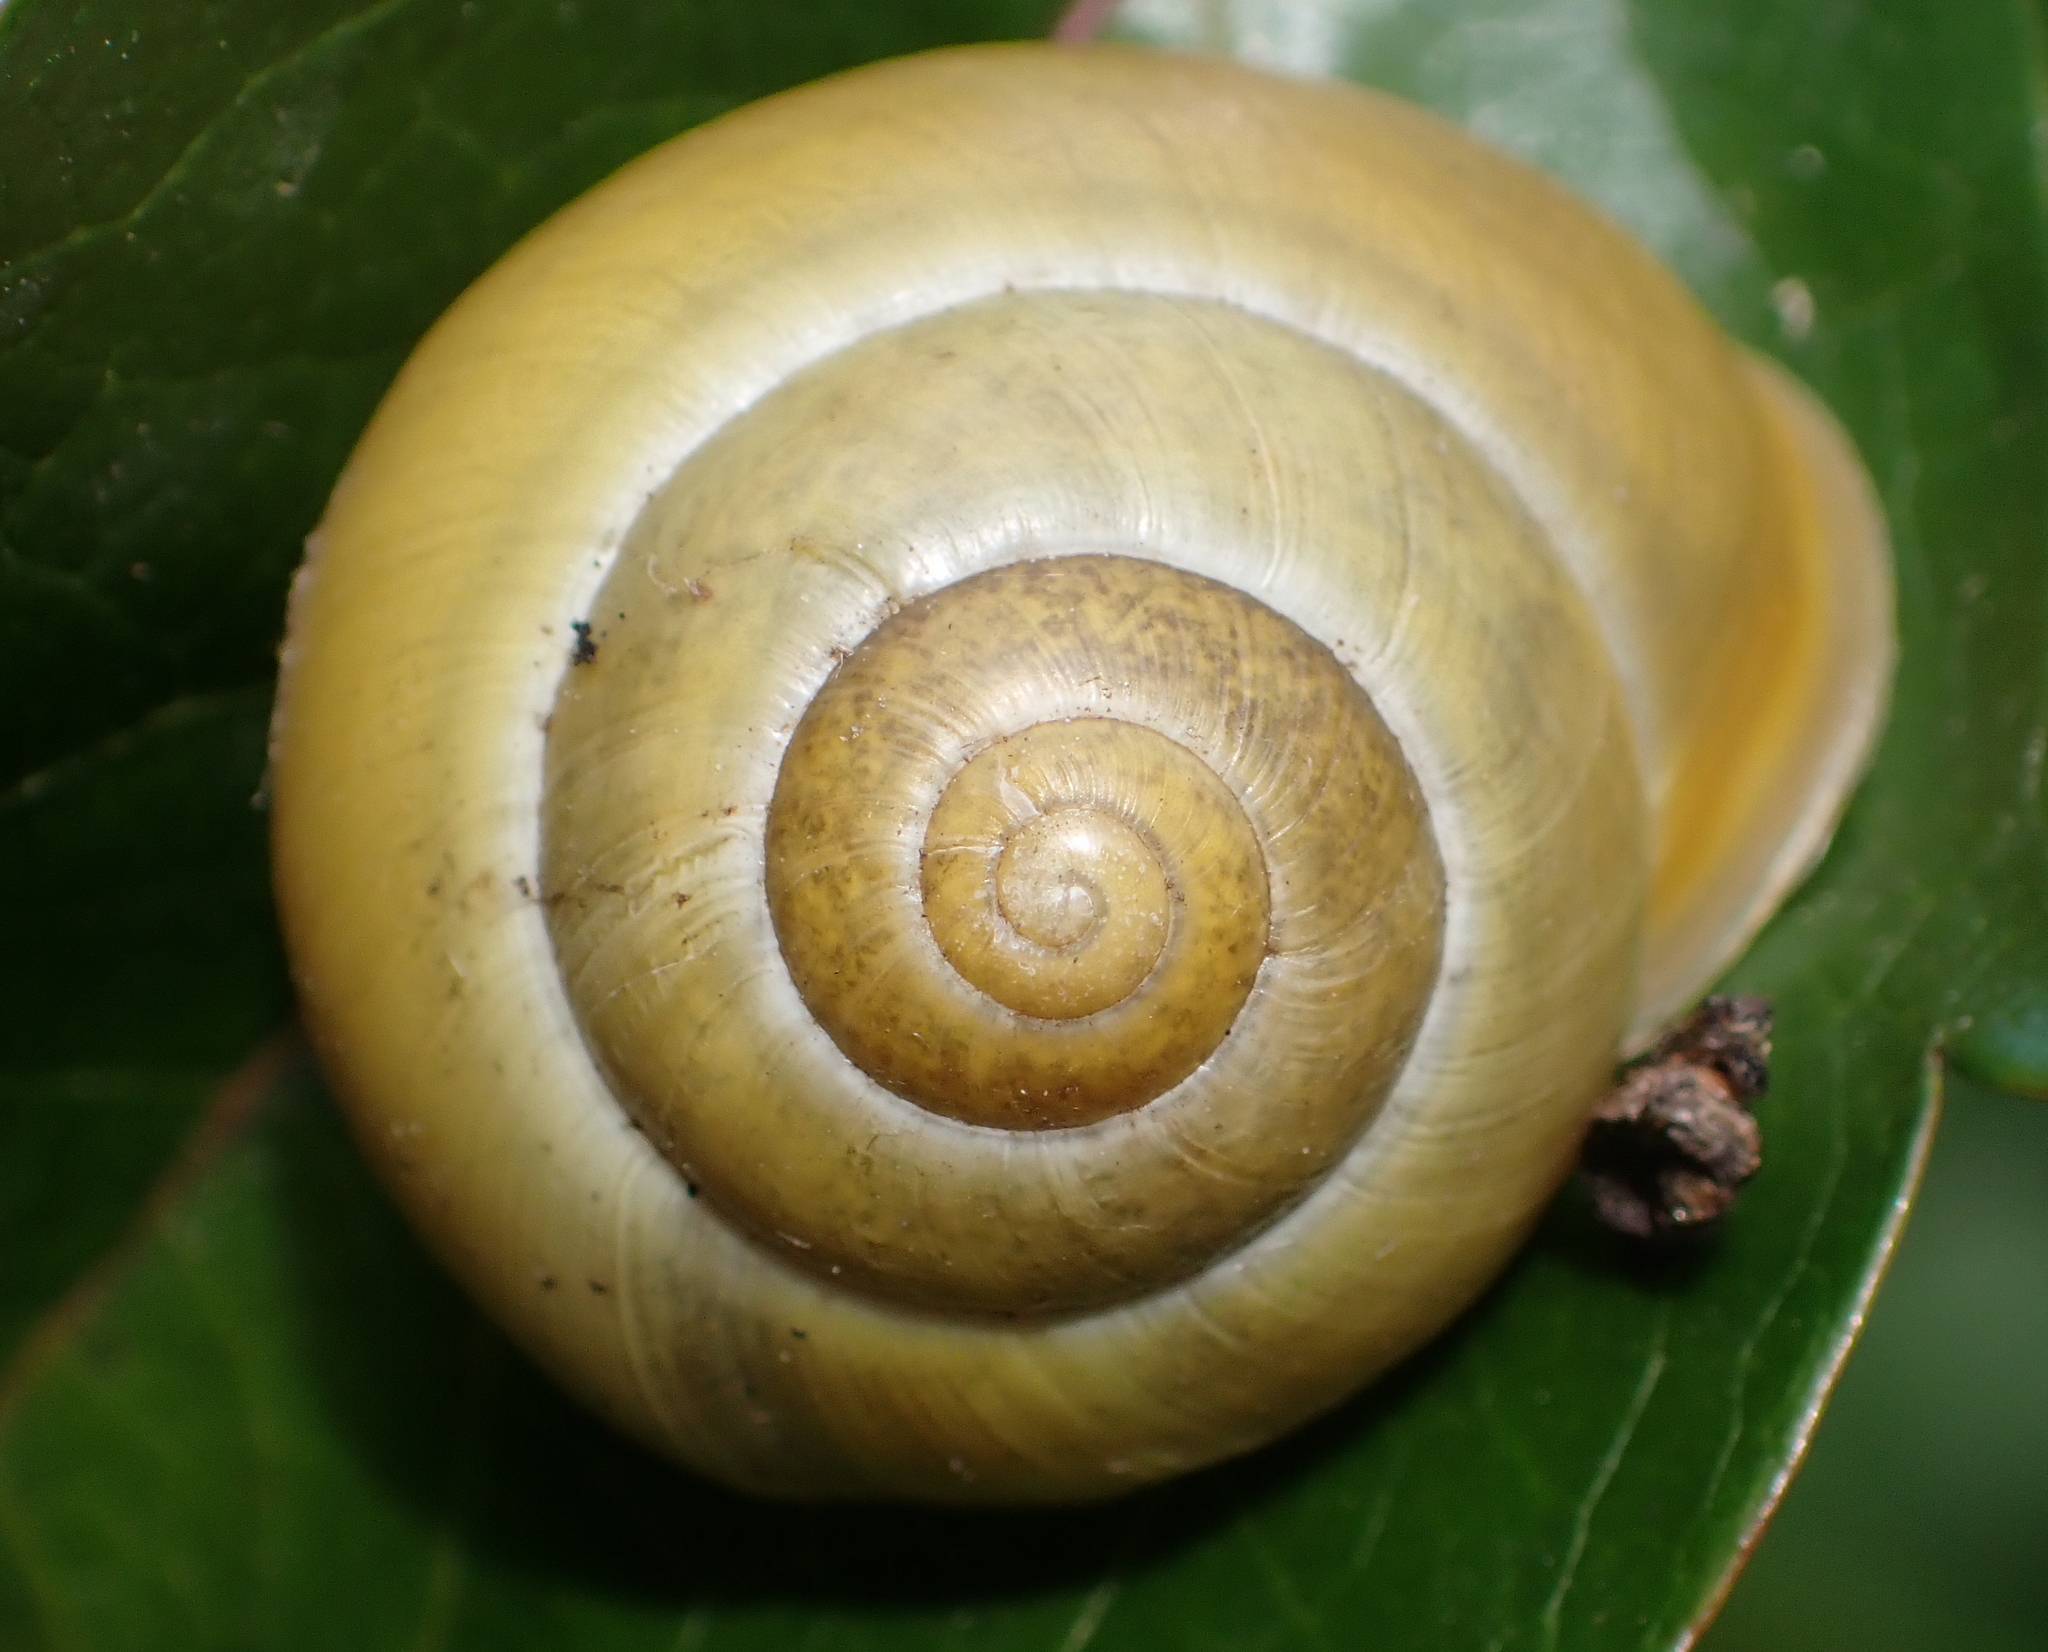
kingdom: Animalia
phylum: Mollusca
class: Gastropoda
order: Stylommatophora
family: Helicidae
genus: Cepaea
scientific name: Cepaea hortensis
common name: White-lip gardensnail
